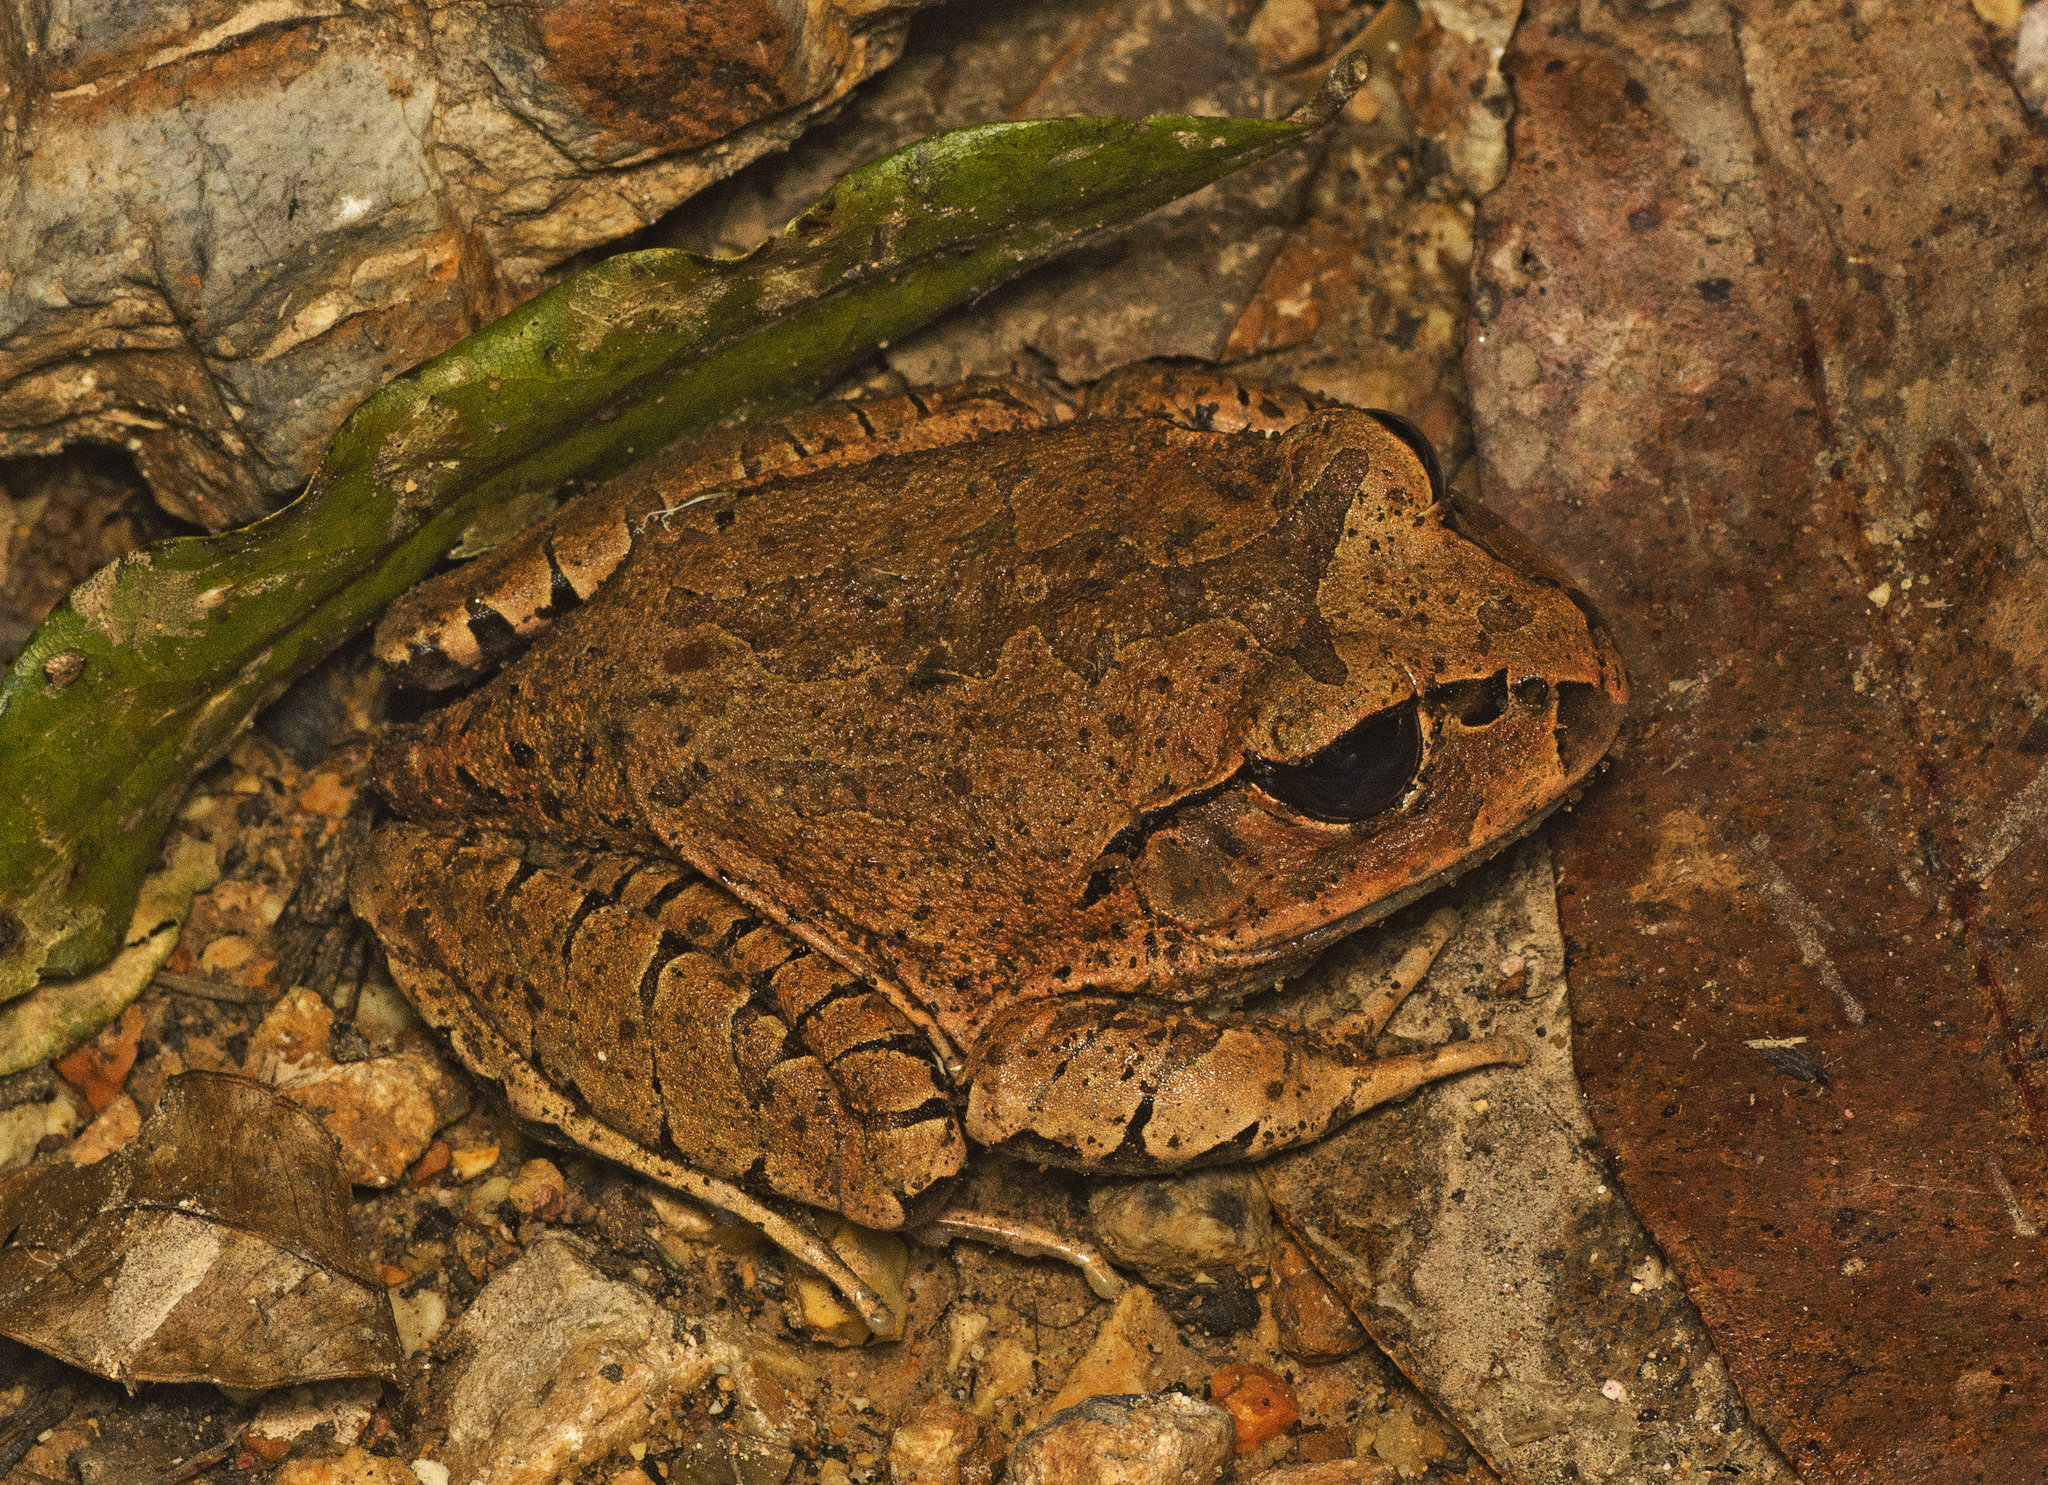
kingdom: Animalia
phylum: Chordata
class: Amphibia
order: Anura
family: Myobatrachidae
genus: Mixophyes
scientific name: Mixophyes fasciolatus
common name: Great barred river-frog
